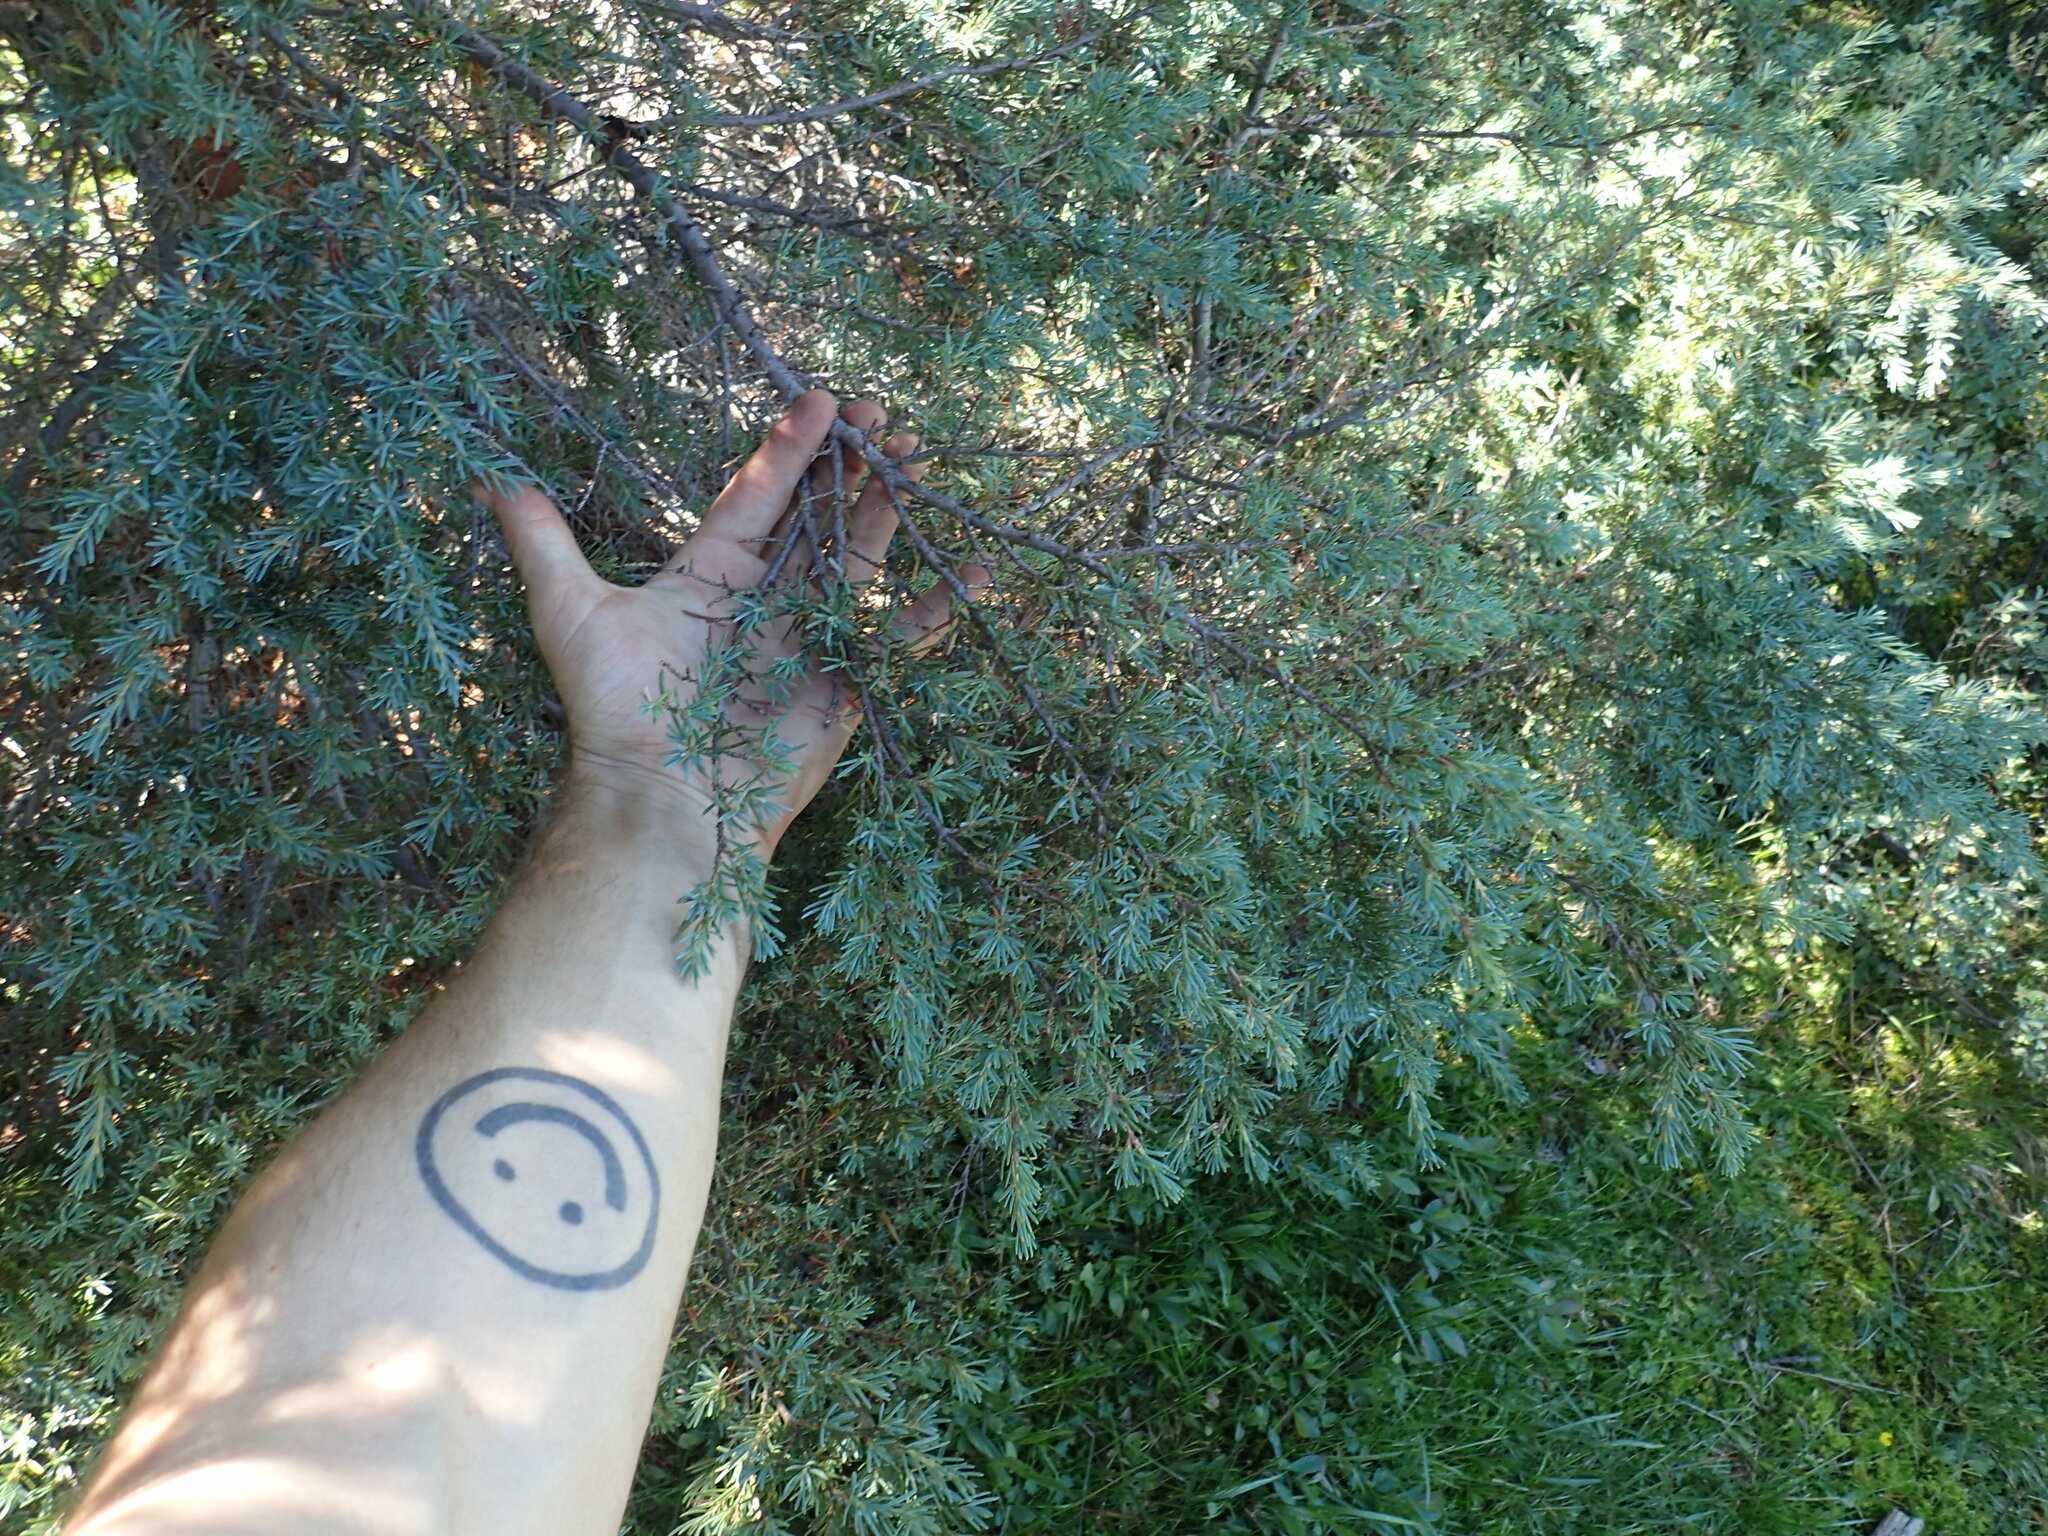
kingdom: Plantae
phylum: Tracheophyta
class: Pinopsida
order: Pinales
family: Pinaceae
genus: Tsuga
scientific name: Tsuga mertensiana
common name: Mountain hemlock
